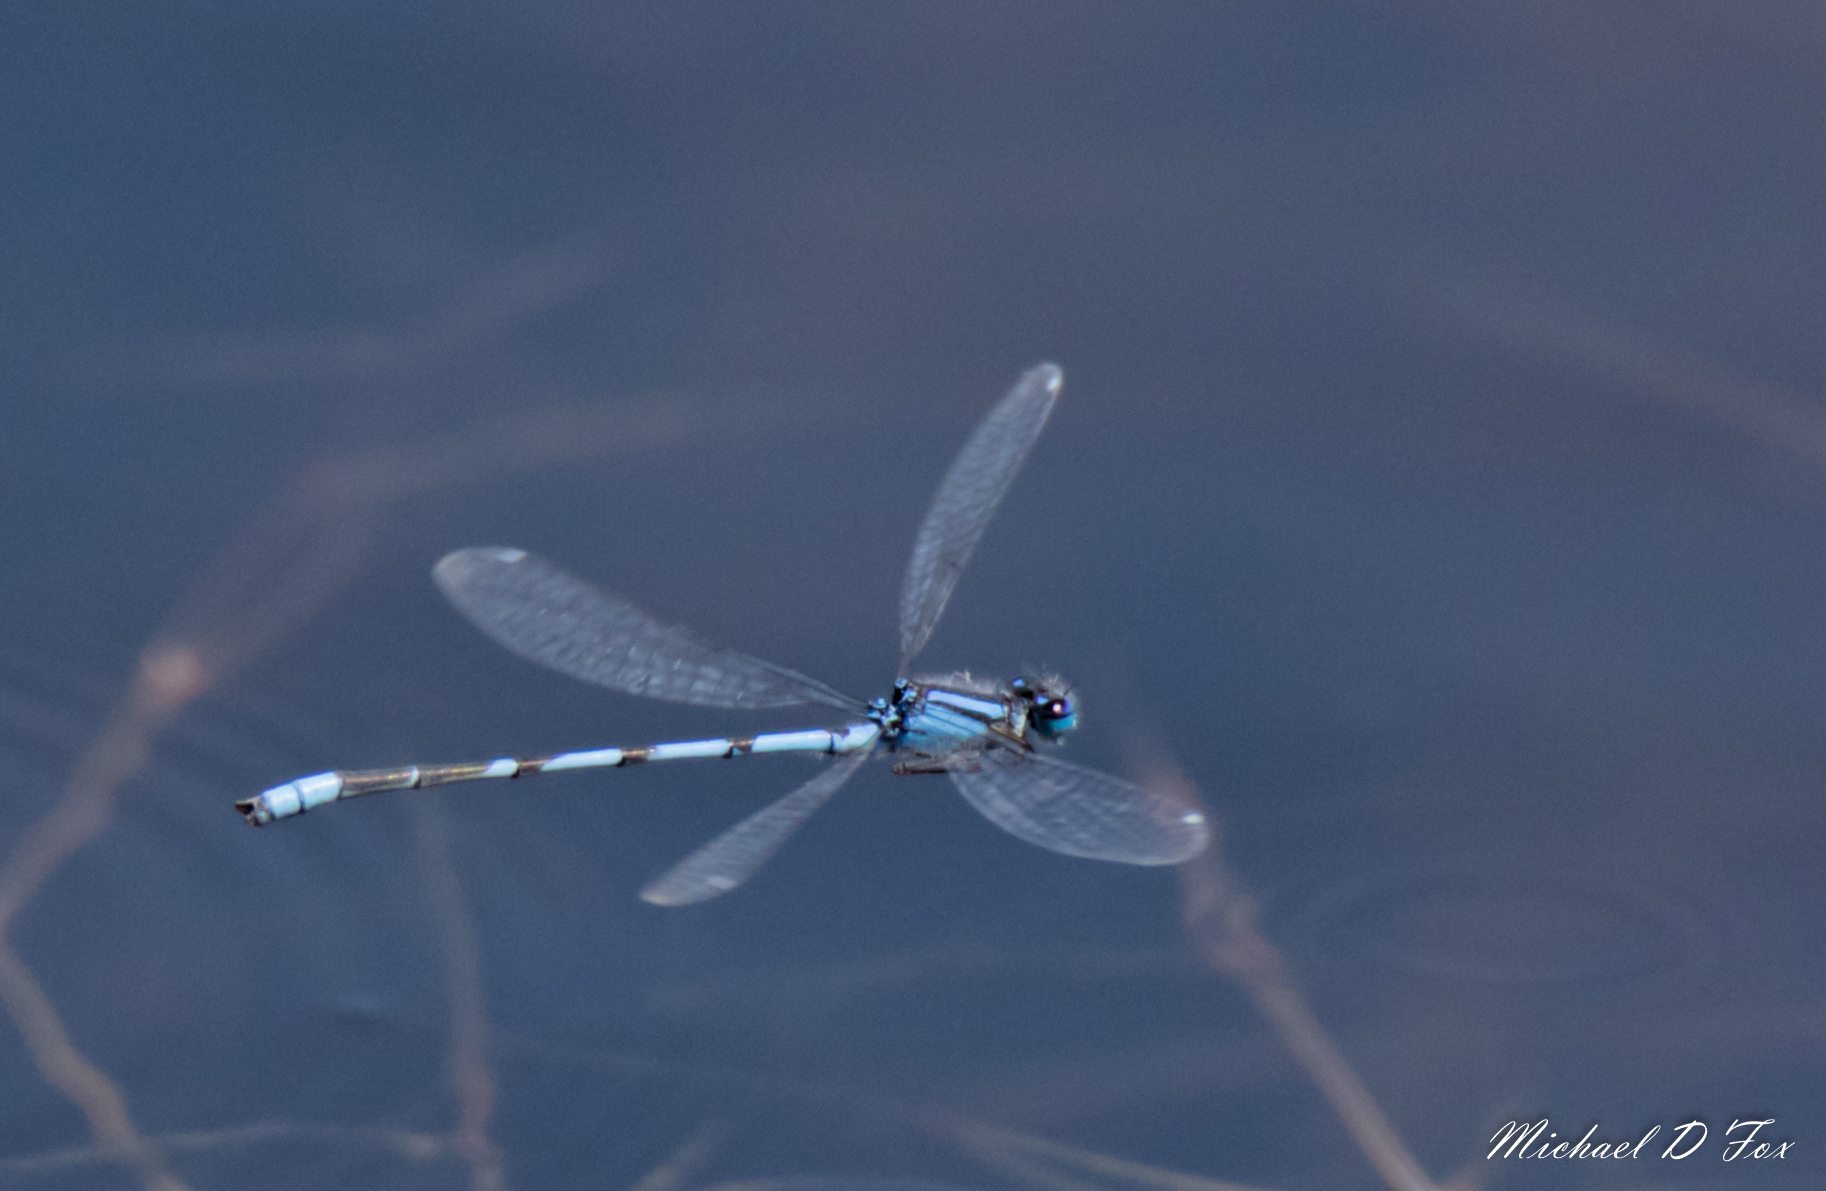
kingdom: Animalia
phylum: Arthropoda
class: Insecta
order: Odonata
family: Coenagrionidae
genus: Enallagma
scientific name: Enallagma civile
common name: Damselfly
